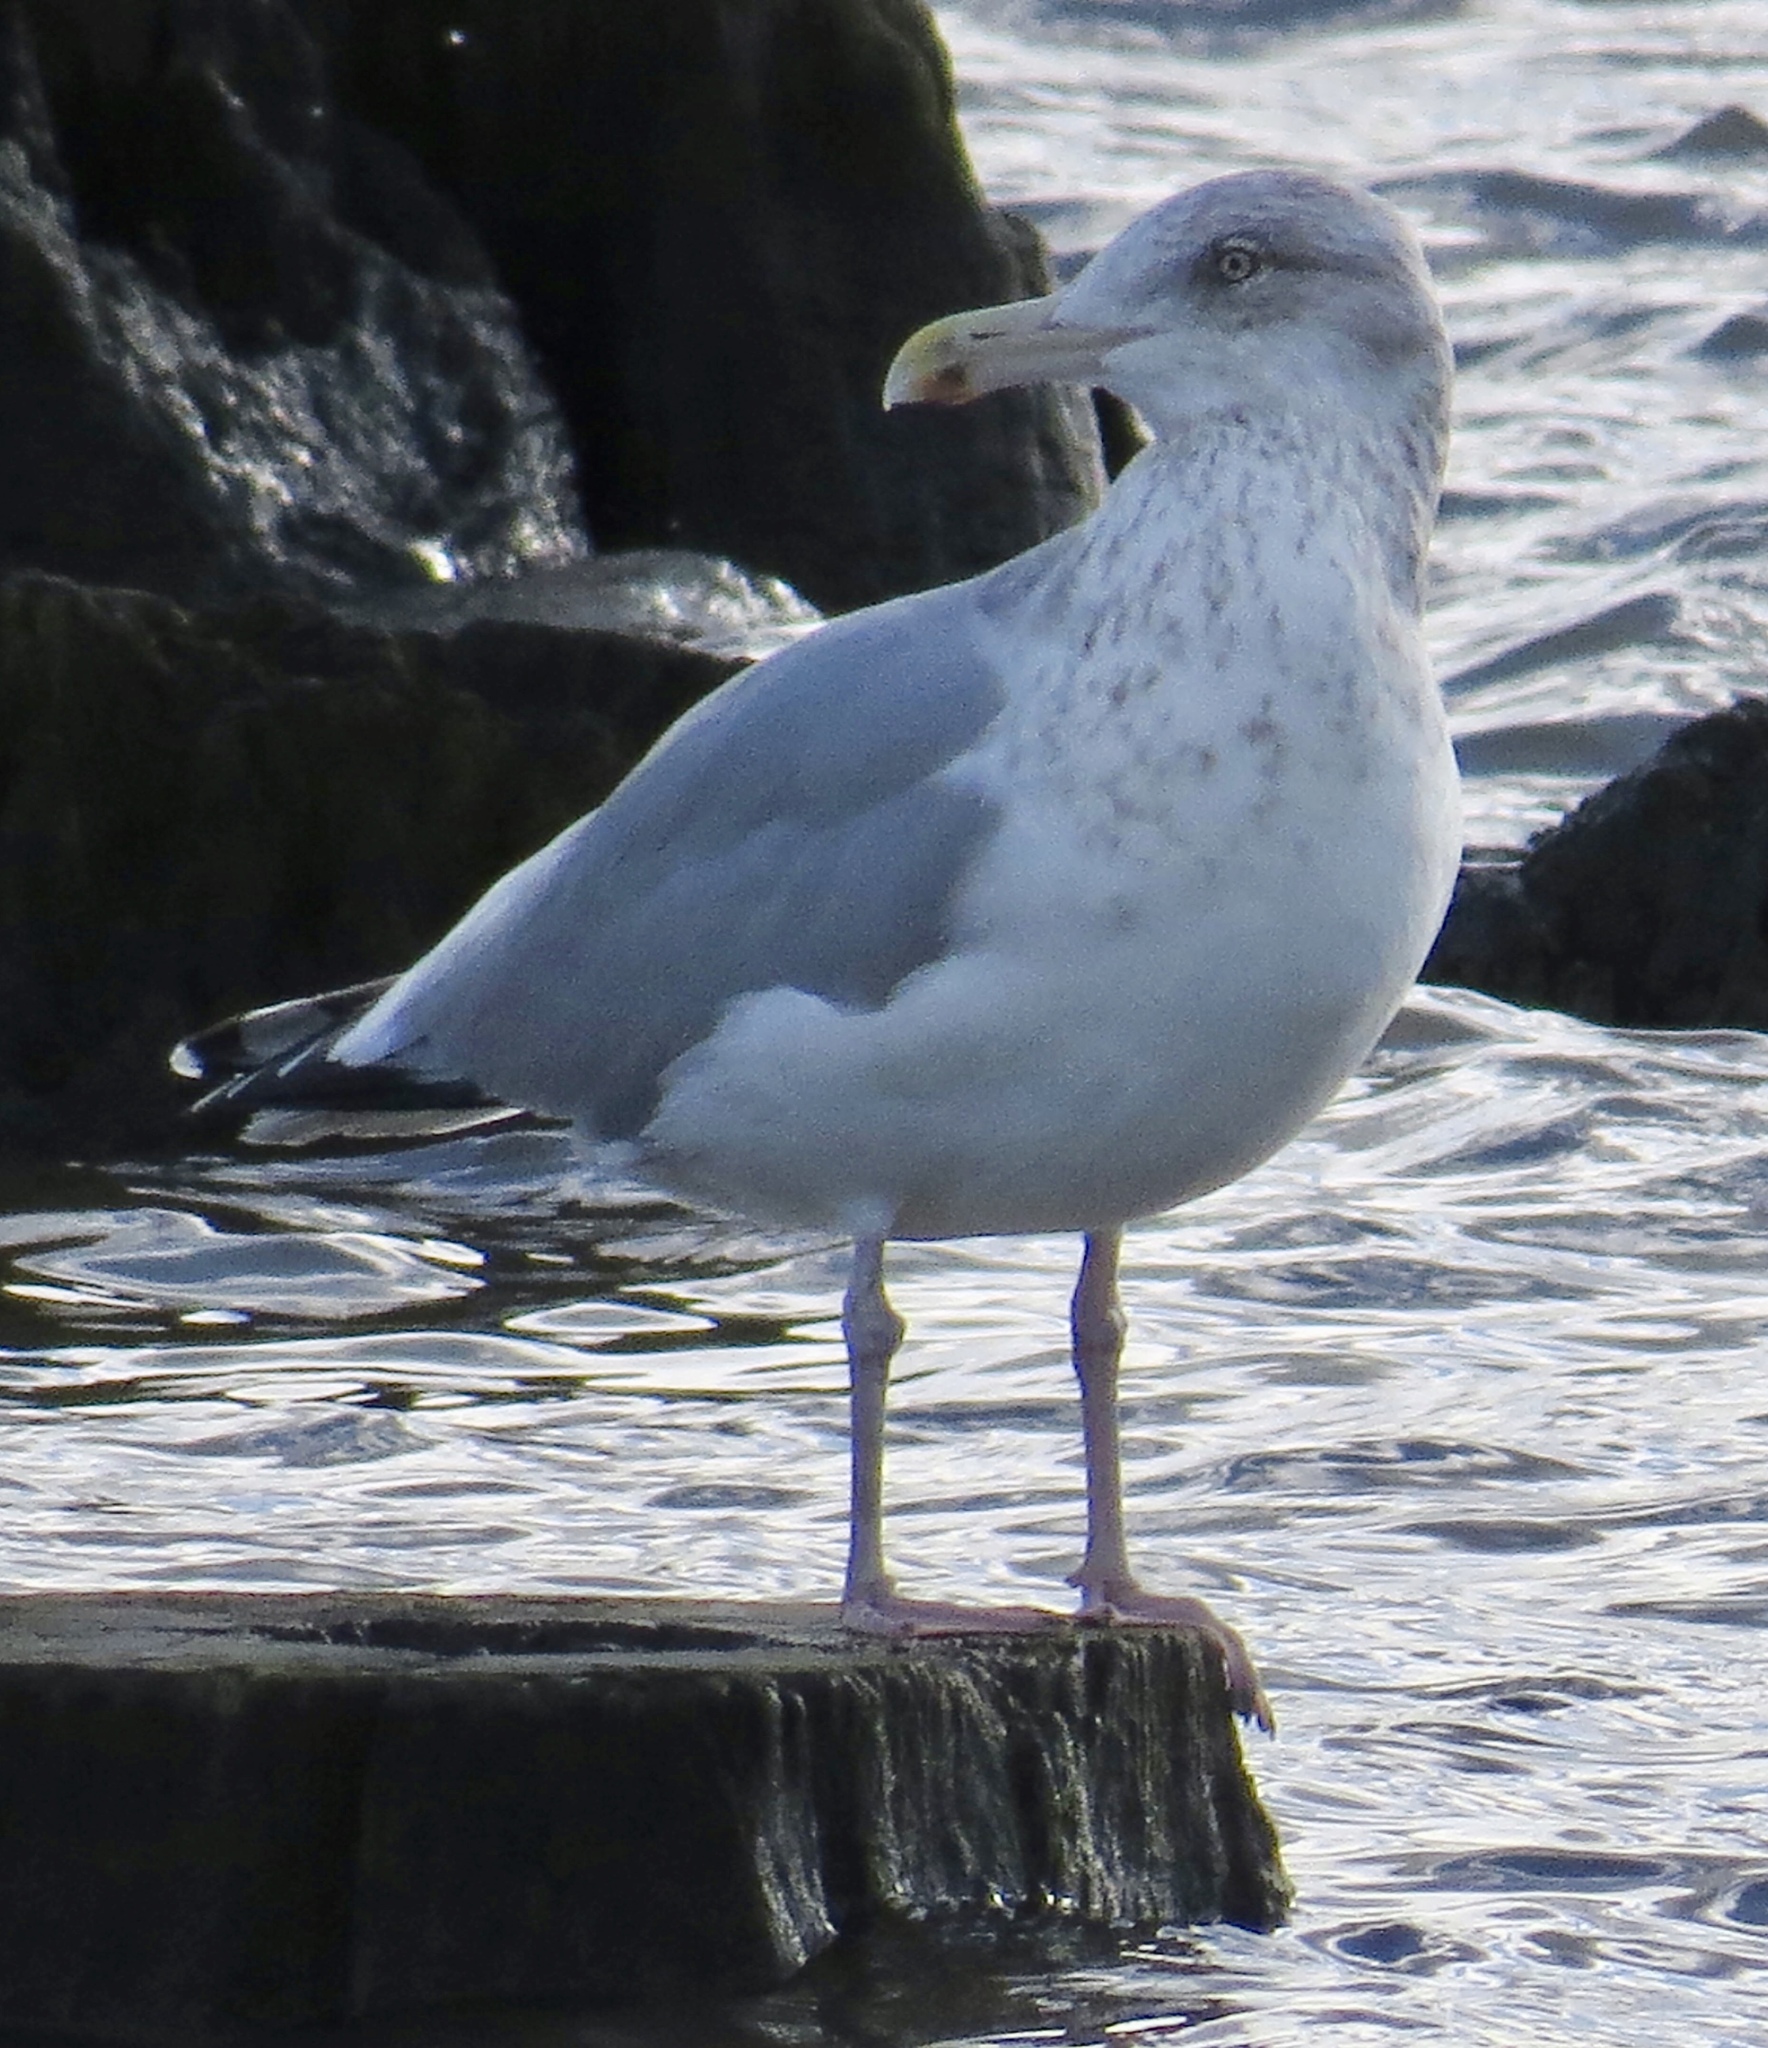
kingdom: Animalia
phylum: Chordata
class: Aves
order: Charadriiformes
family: Laridae
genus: Larus
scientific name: Larus argentatus
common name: Herring gull
